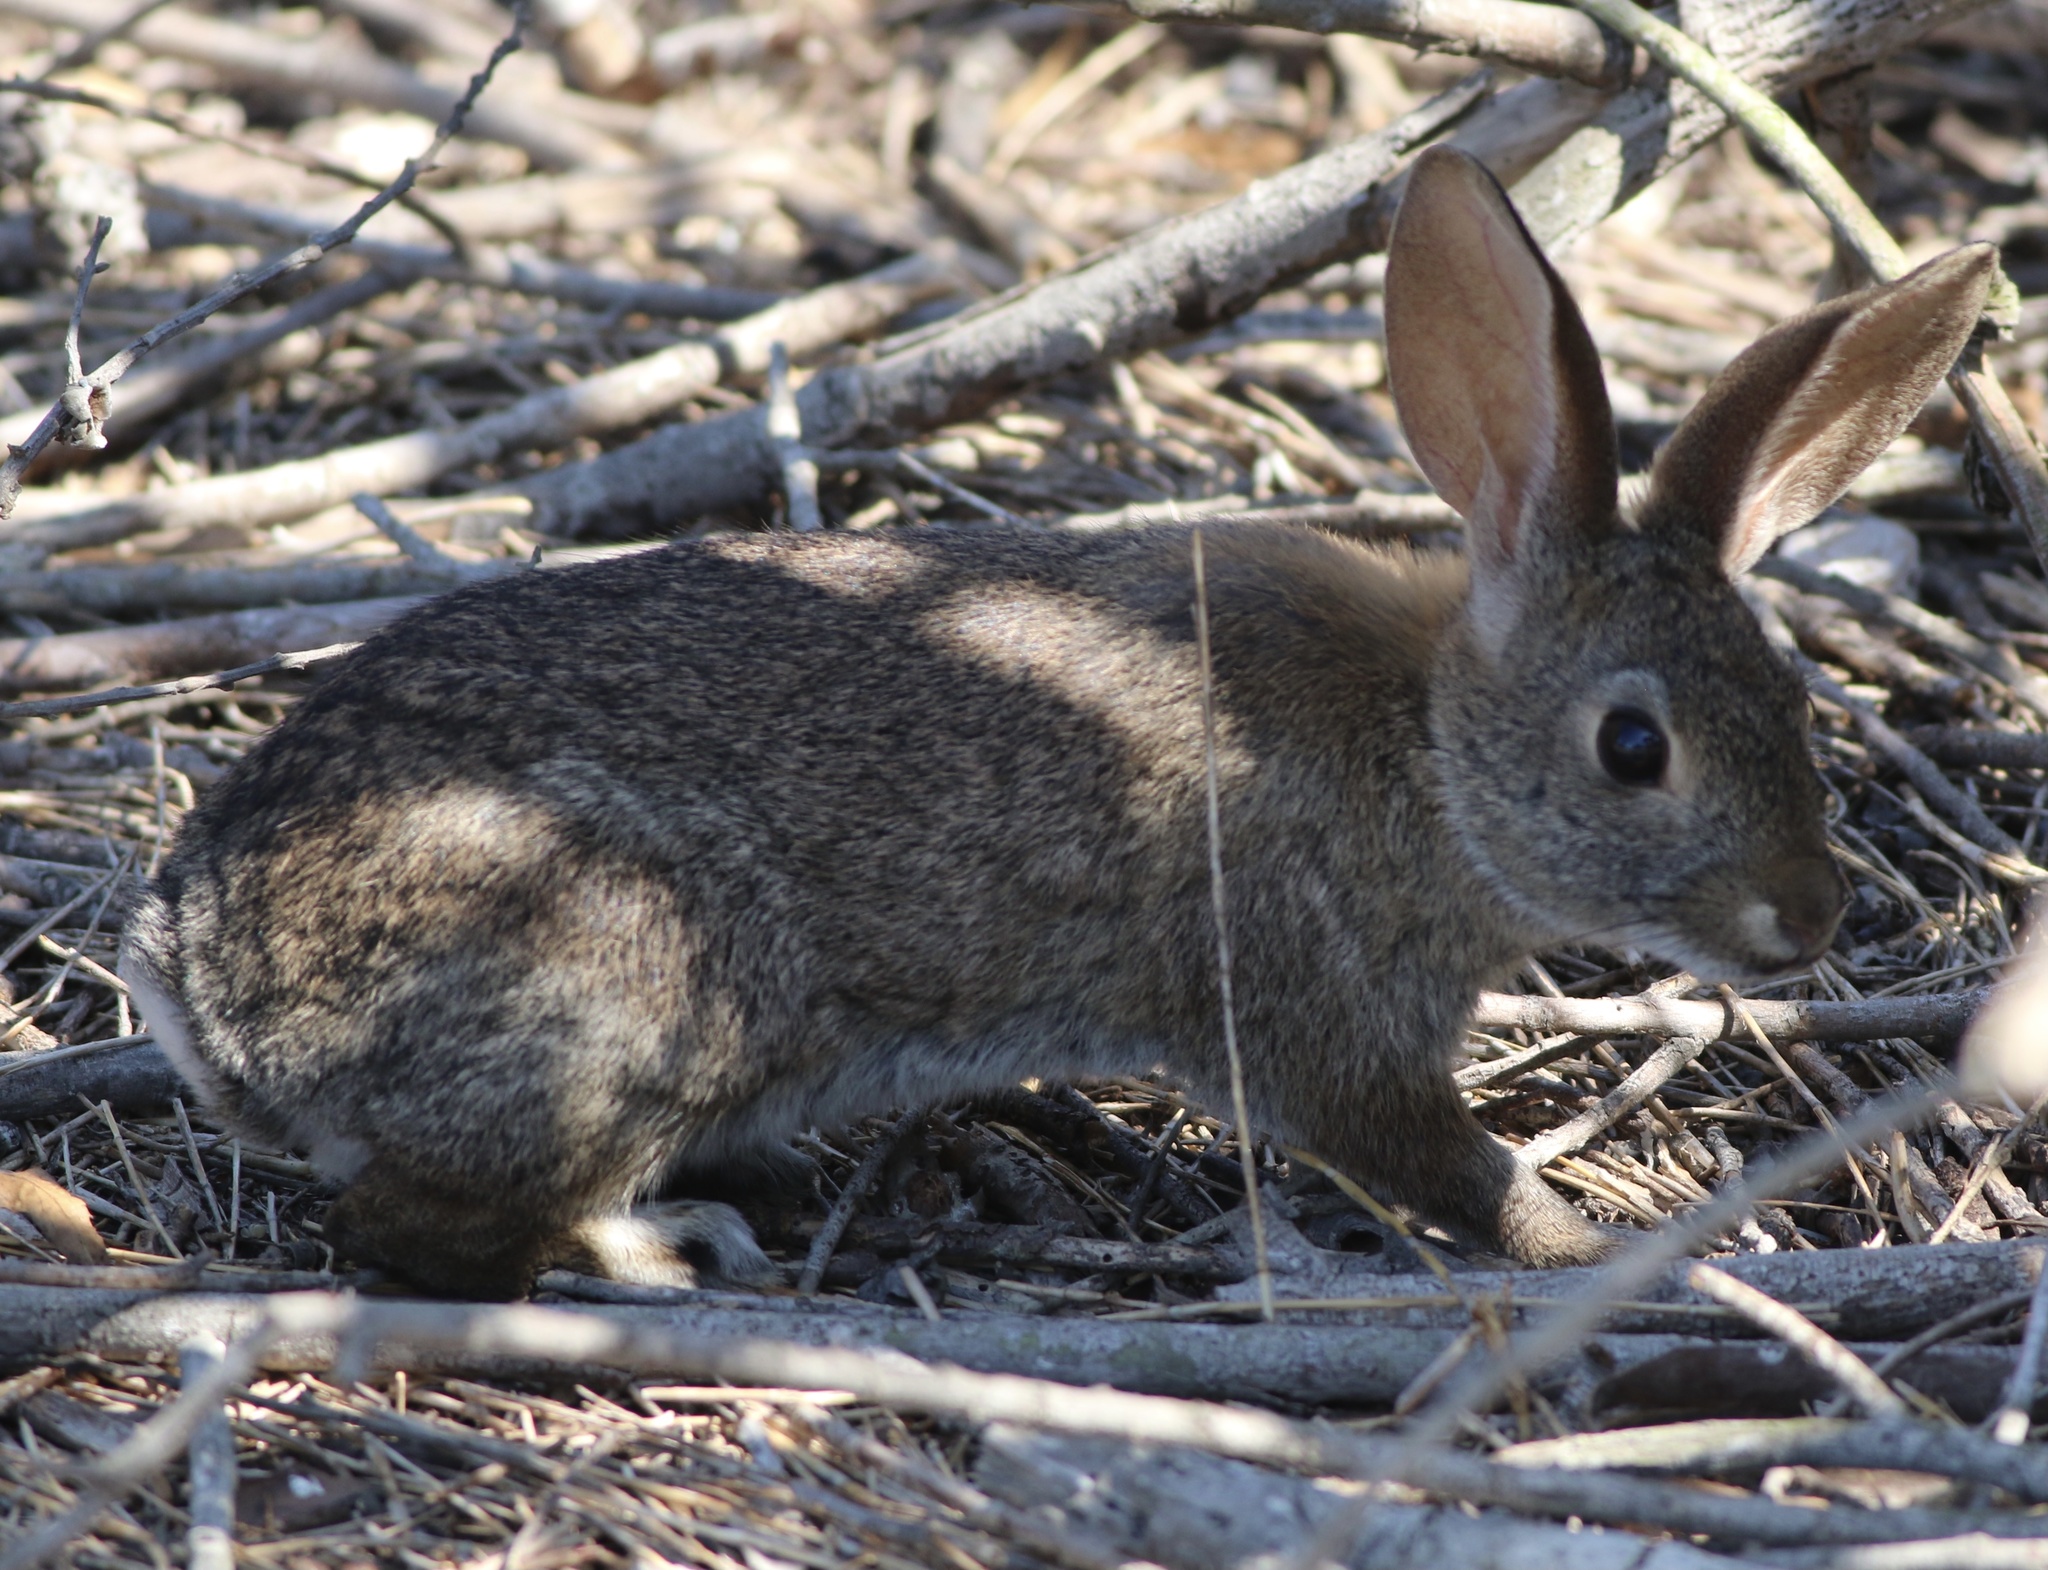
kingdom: Animalia
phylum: Chordata
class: Mammalia
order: Lagomorpha
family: Leporidae
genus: Sylvilagus
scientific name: Sylvilagus bachmani
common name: Brush rabbit
